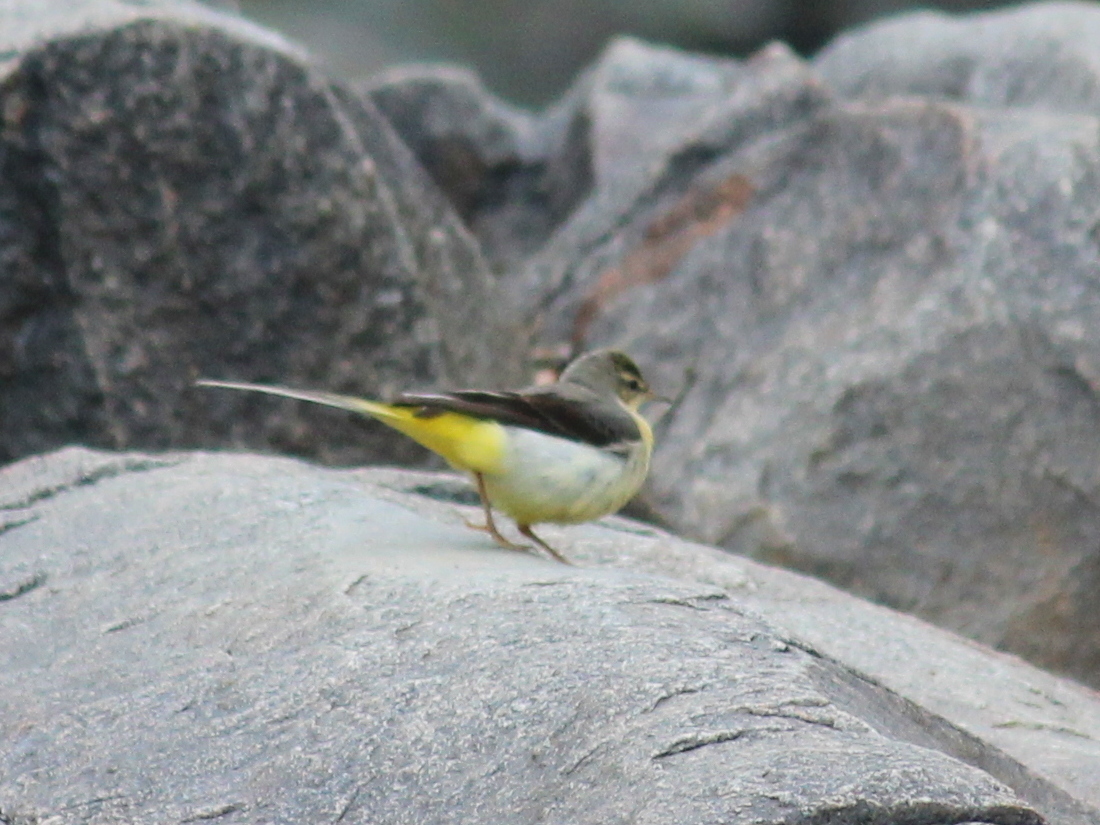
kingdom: Animalia
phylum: Chordata
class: Aves
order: Passeriformes
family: Motacillidae
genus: Motacilla
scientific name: Motacilla cinerea
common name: Grey wagtail
